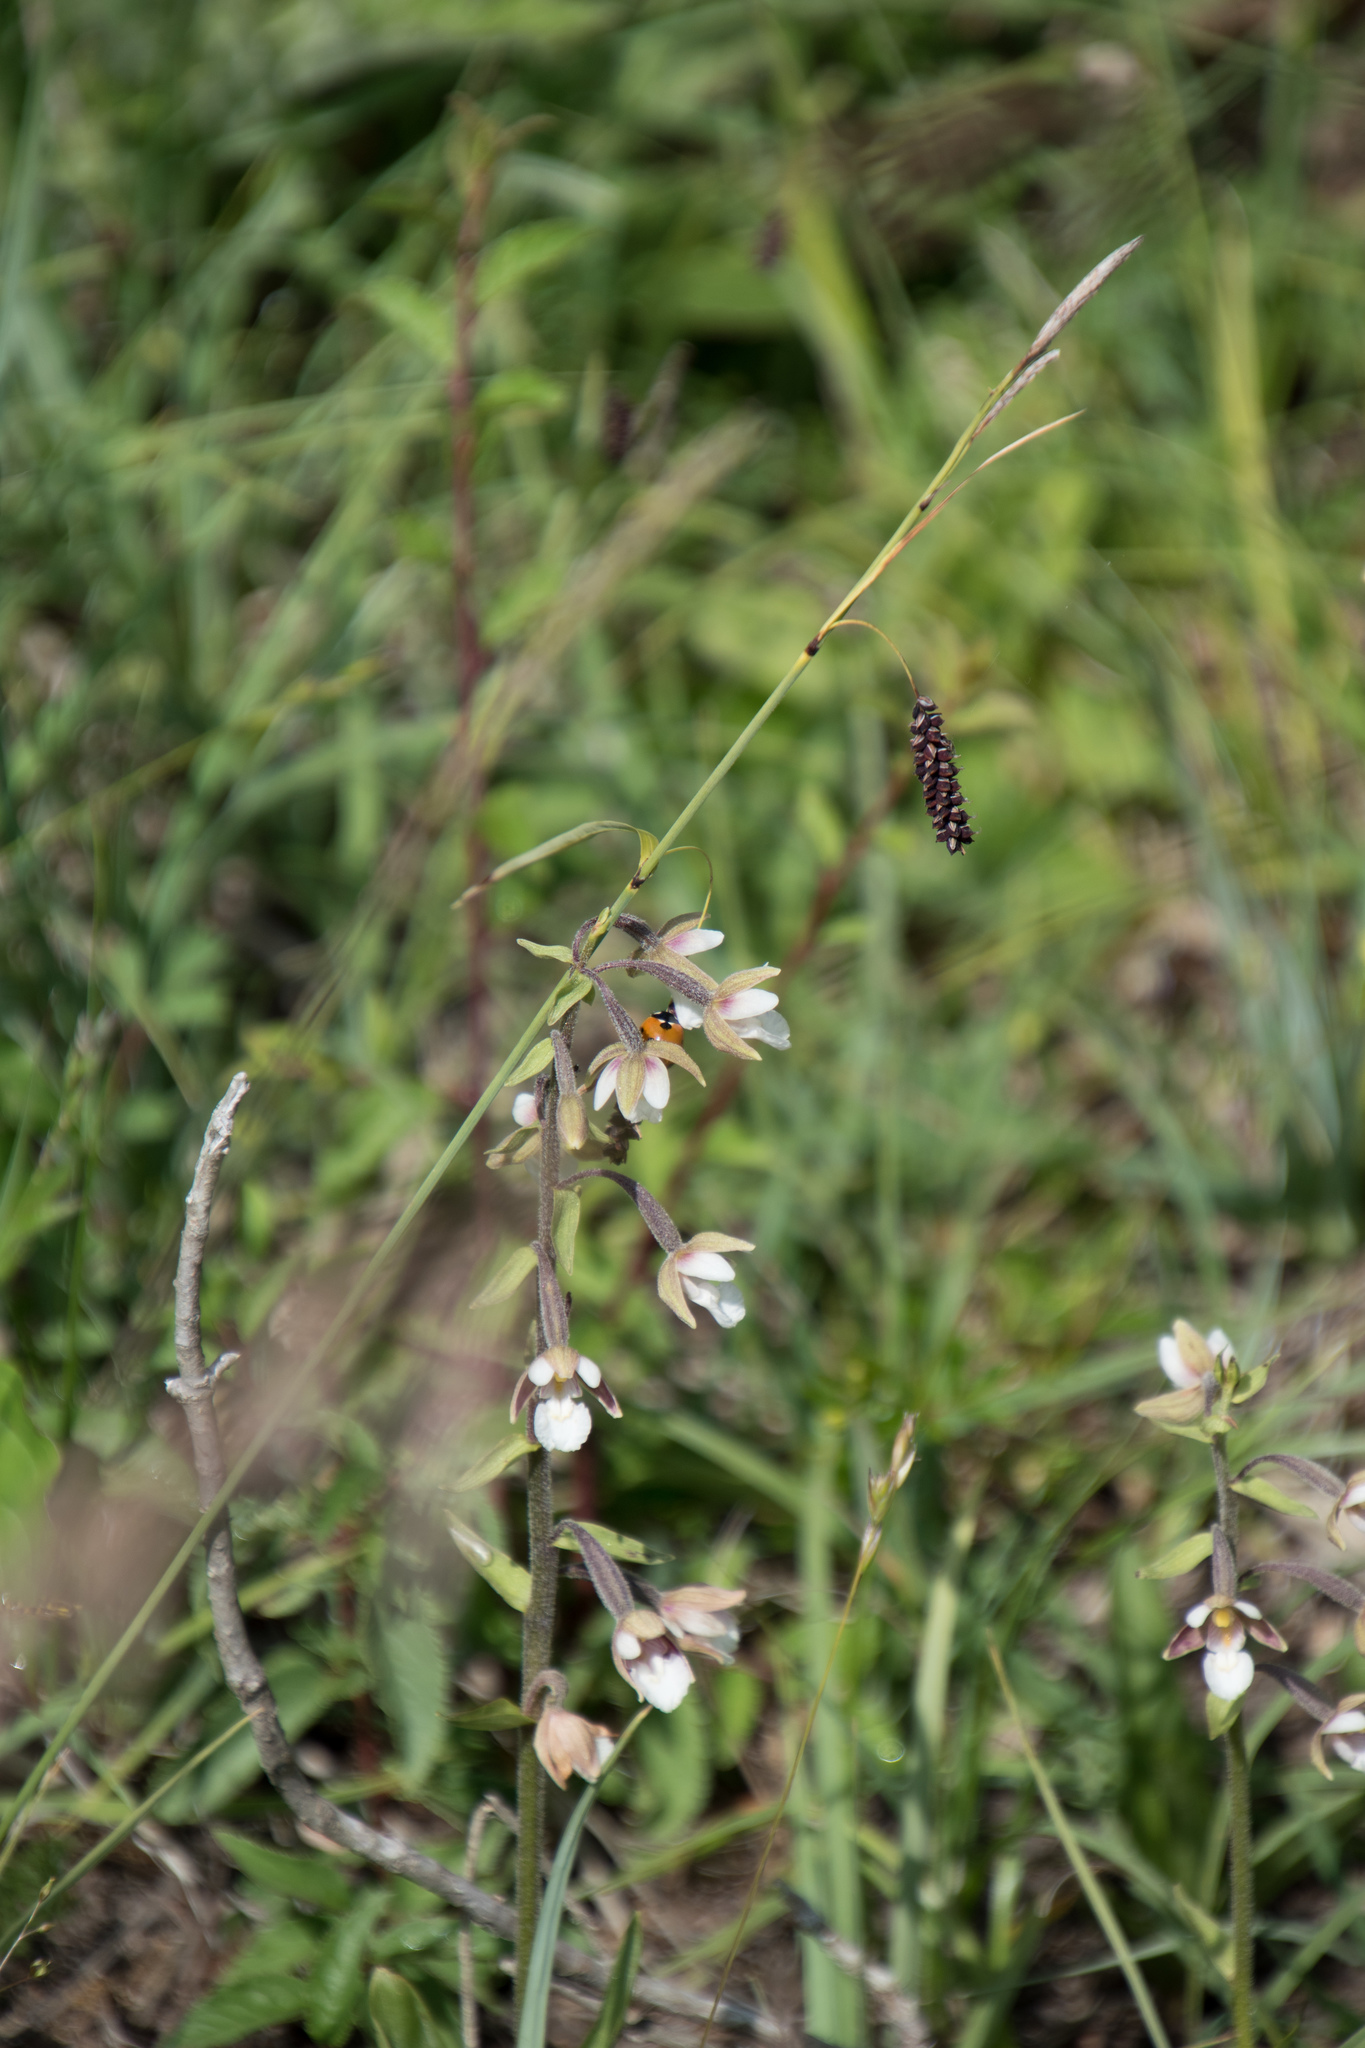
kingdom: Plantae
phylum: Tracheophyta
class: Liliopsida
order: Asparagales
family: Orchidaceae
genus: Epipactis
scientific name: Epipactis palustris
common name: Marsh helleborine
